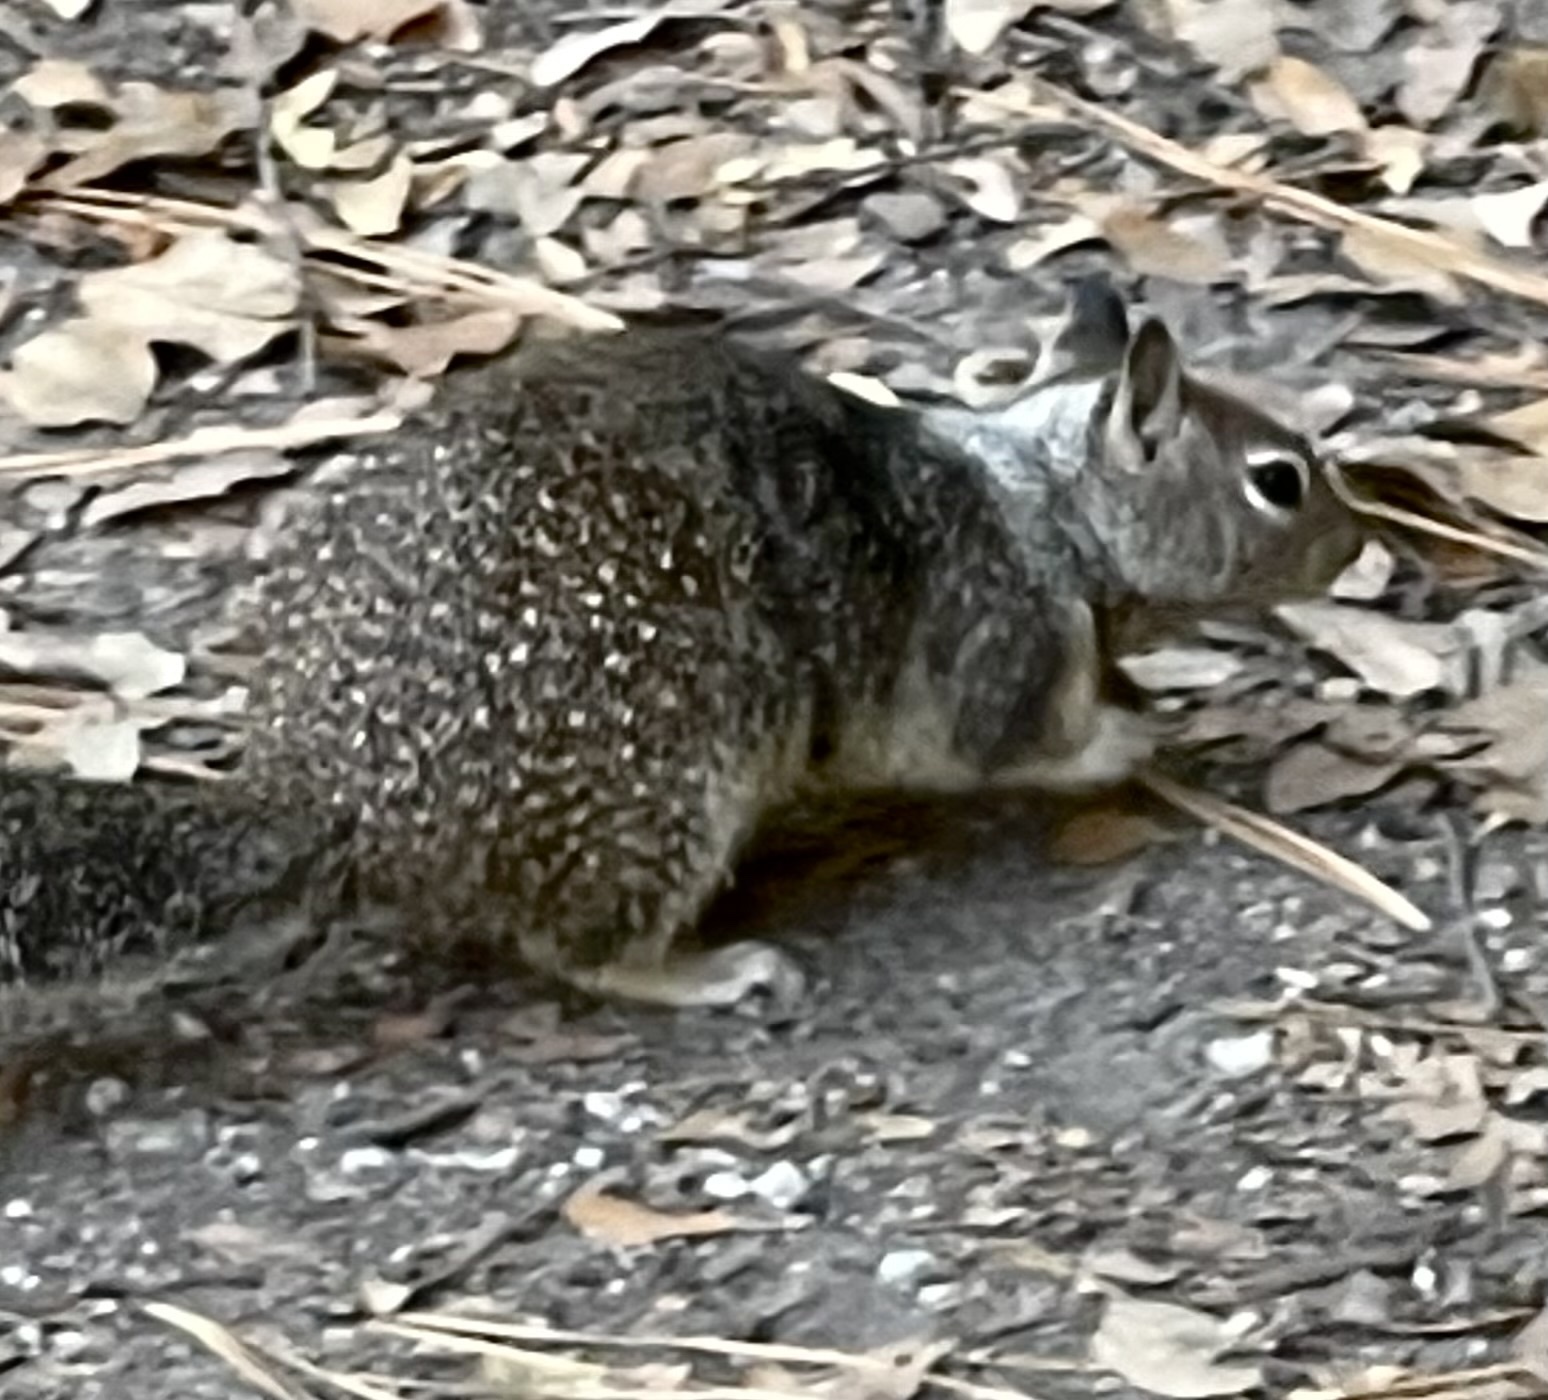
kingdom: Animalia
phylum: Chordata
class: Mammalia
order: Rodentia
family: Sciuridae
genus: Otospermophilus
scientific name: Otospermophilus beecheyi
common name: California ground squirrel
